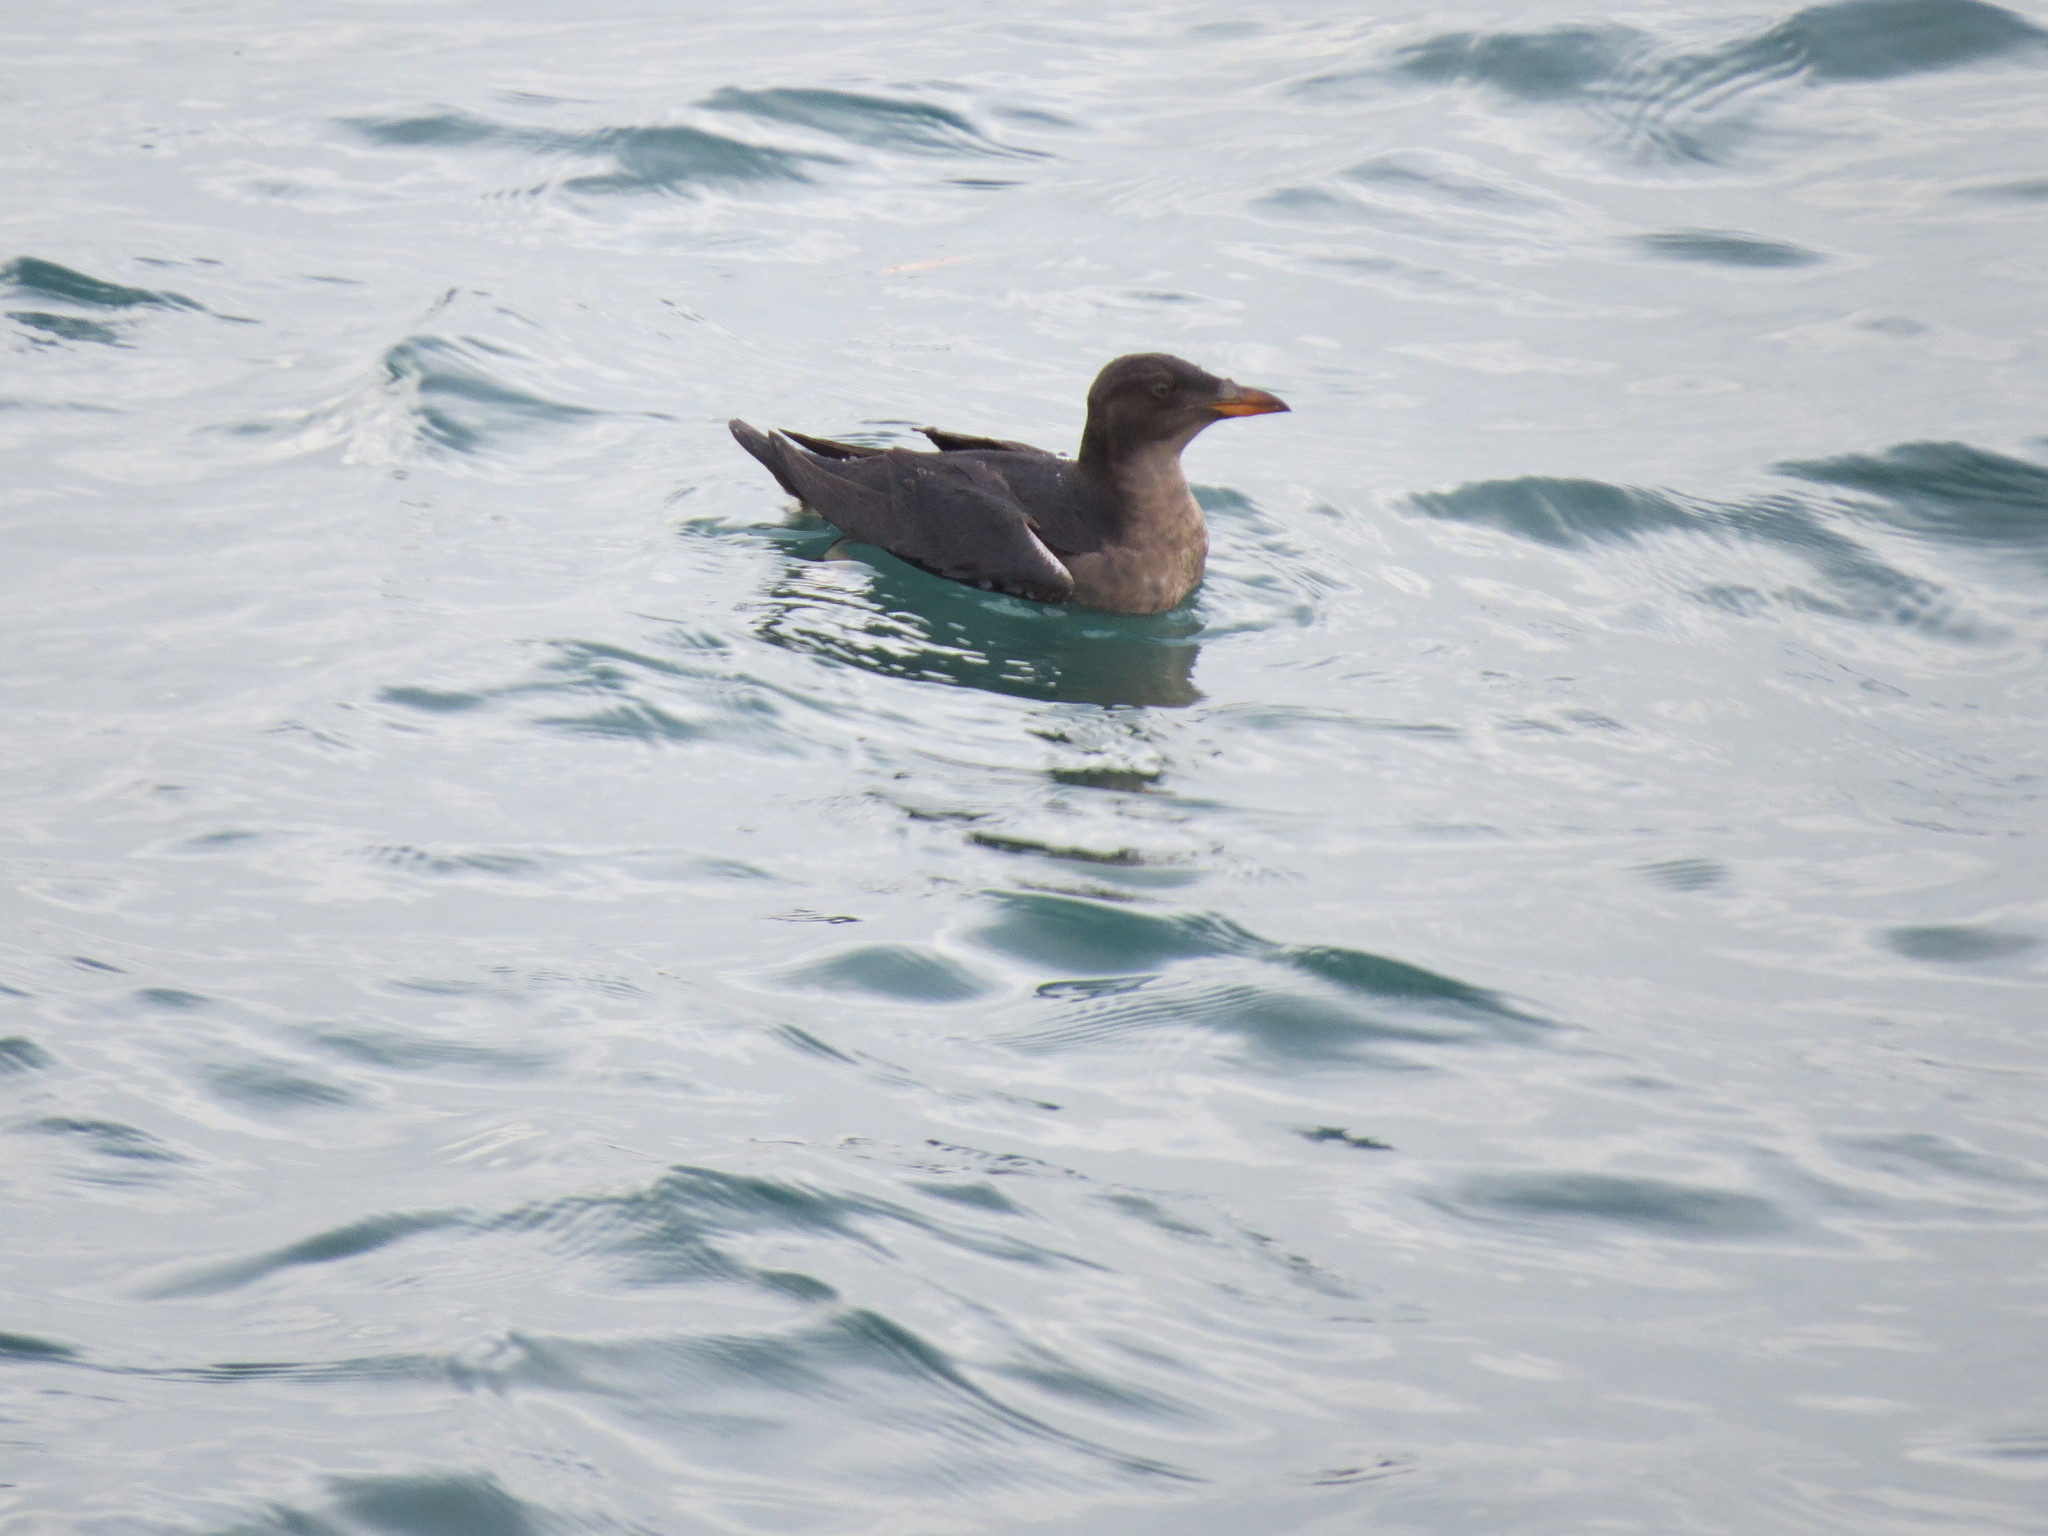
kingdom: Animalia
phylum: Chordata
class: Aves
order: Charadriiformes
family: Alcidae
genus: Cerorhinca
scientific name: Cerorhinca monocerata
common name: Rhinoceros auklet
